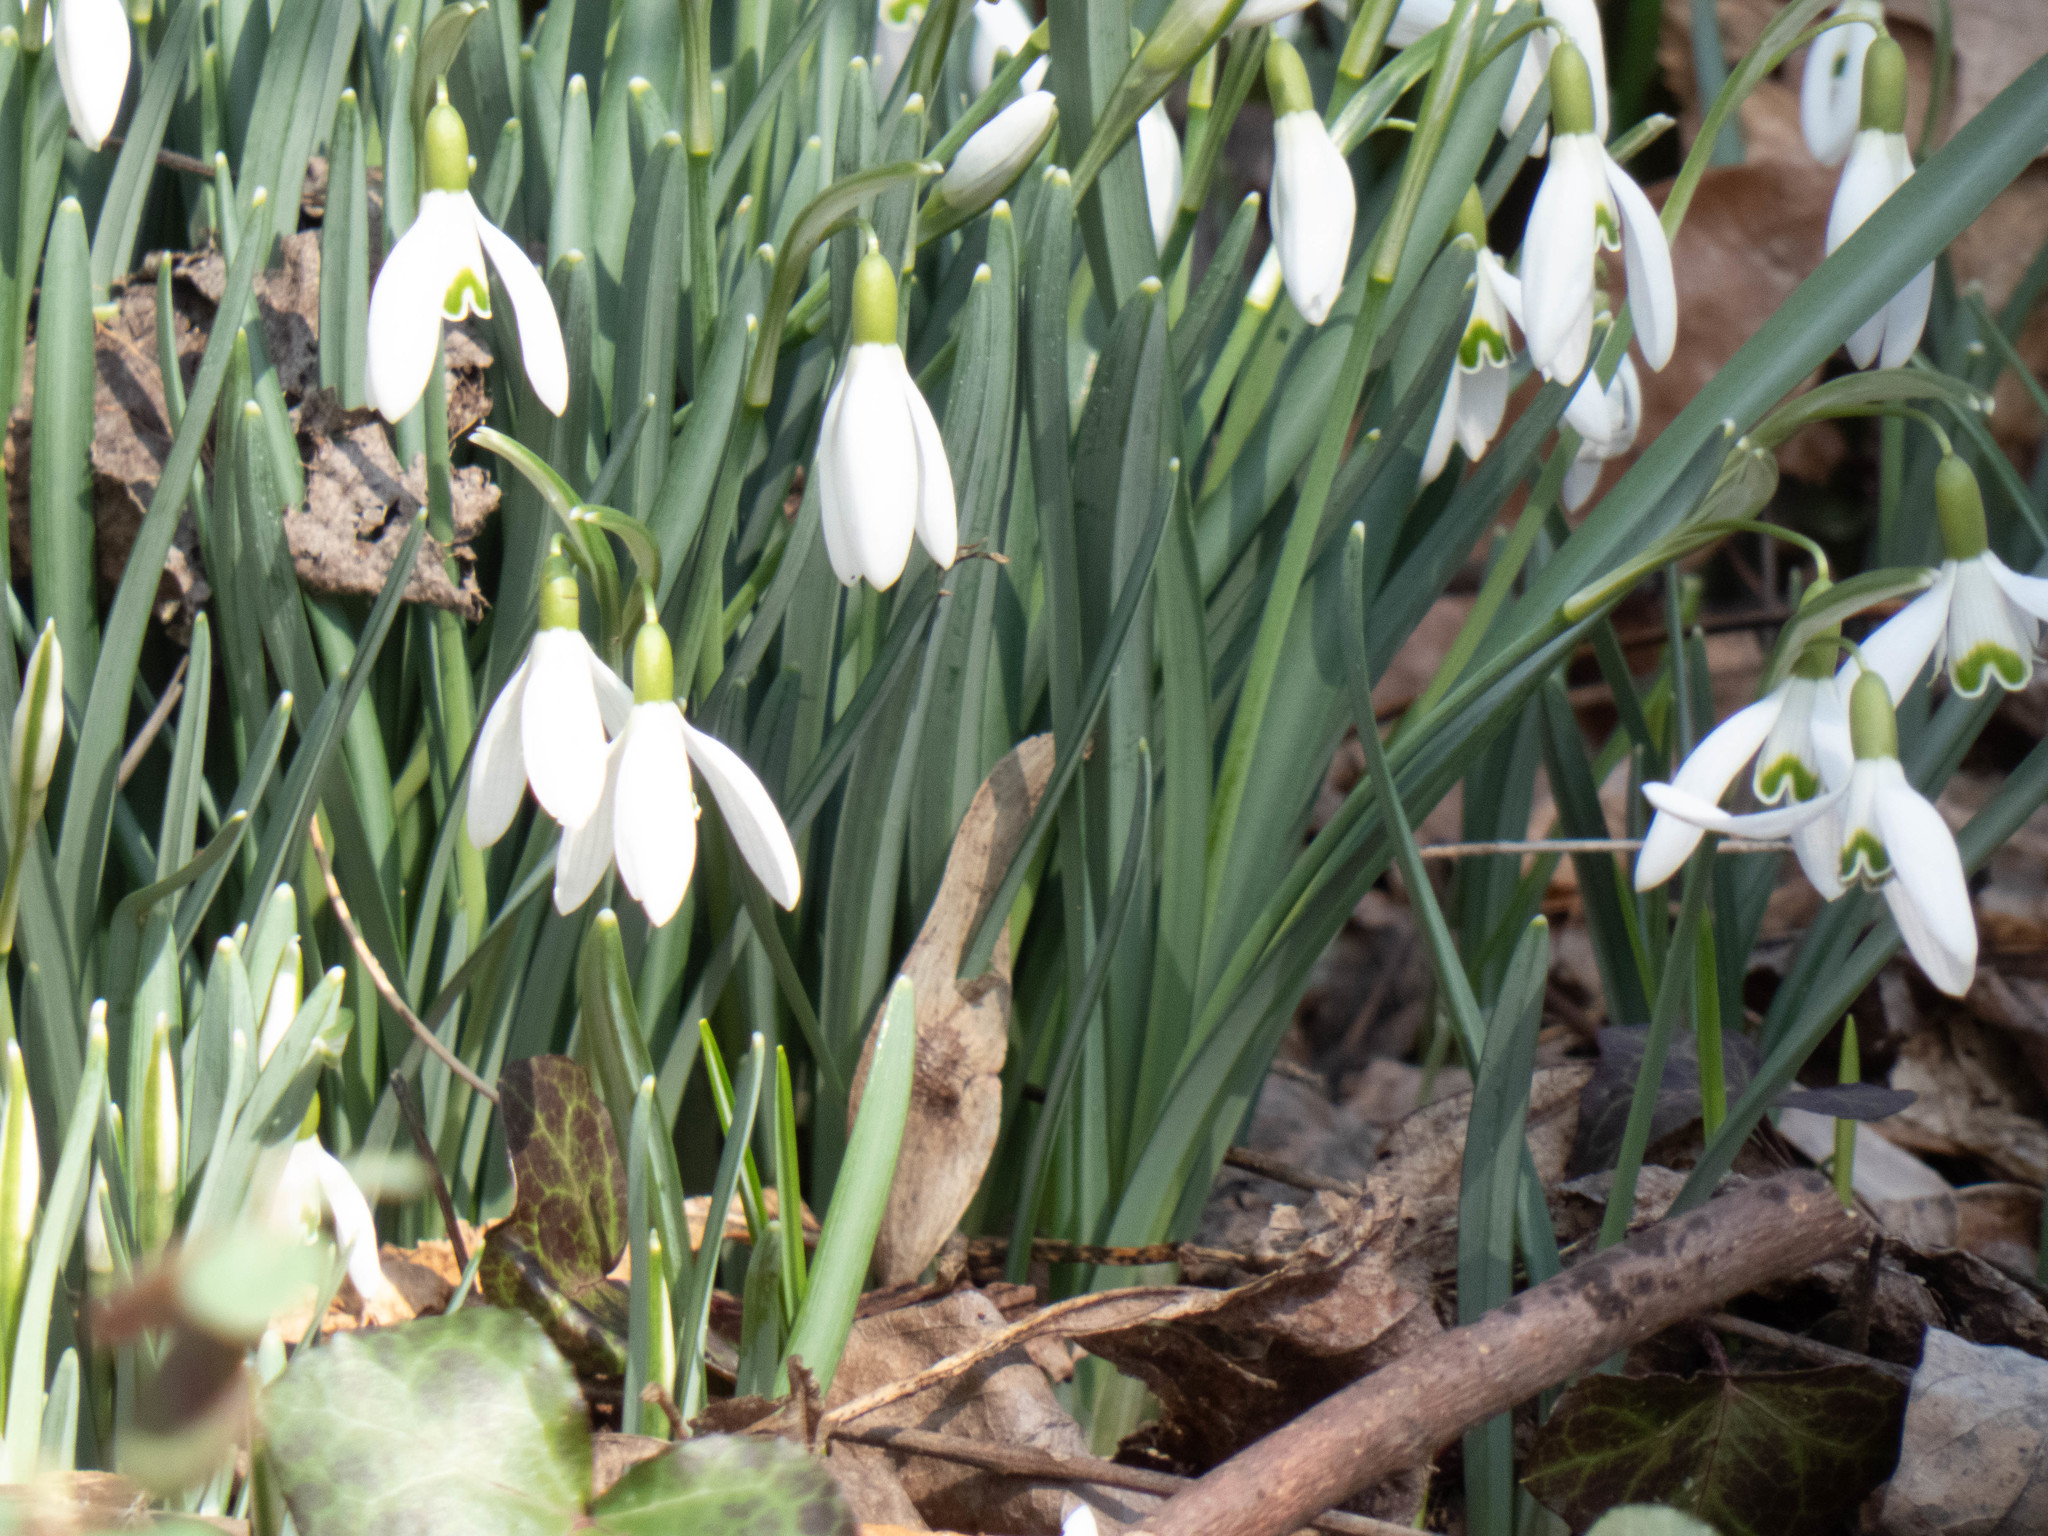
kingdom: Plantae
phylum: Tracheophyta
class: Liliopsida
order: Asparagales
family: Amaryllidaceae
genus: Galanthus
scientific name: Galanthus nivalis
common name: Snowdrop
